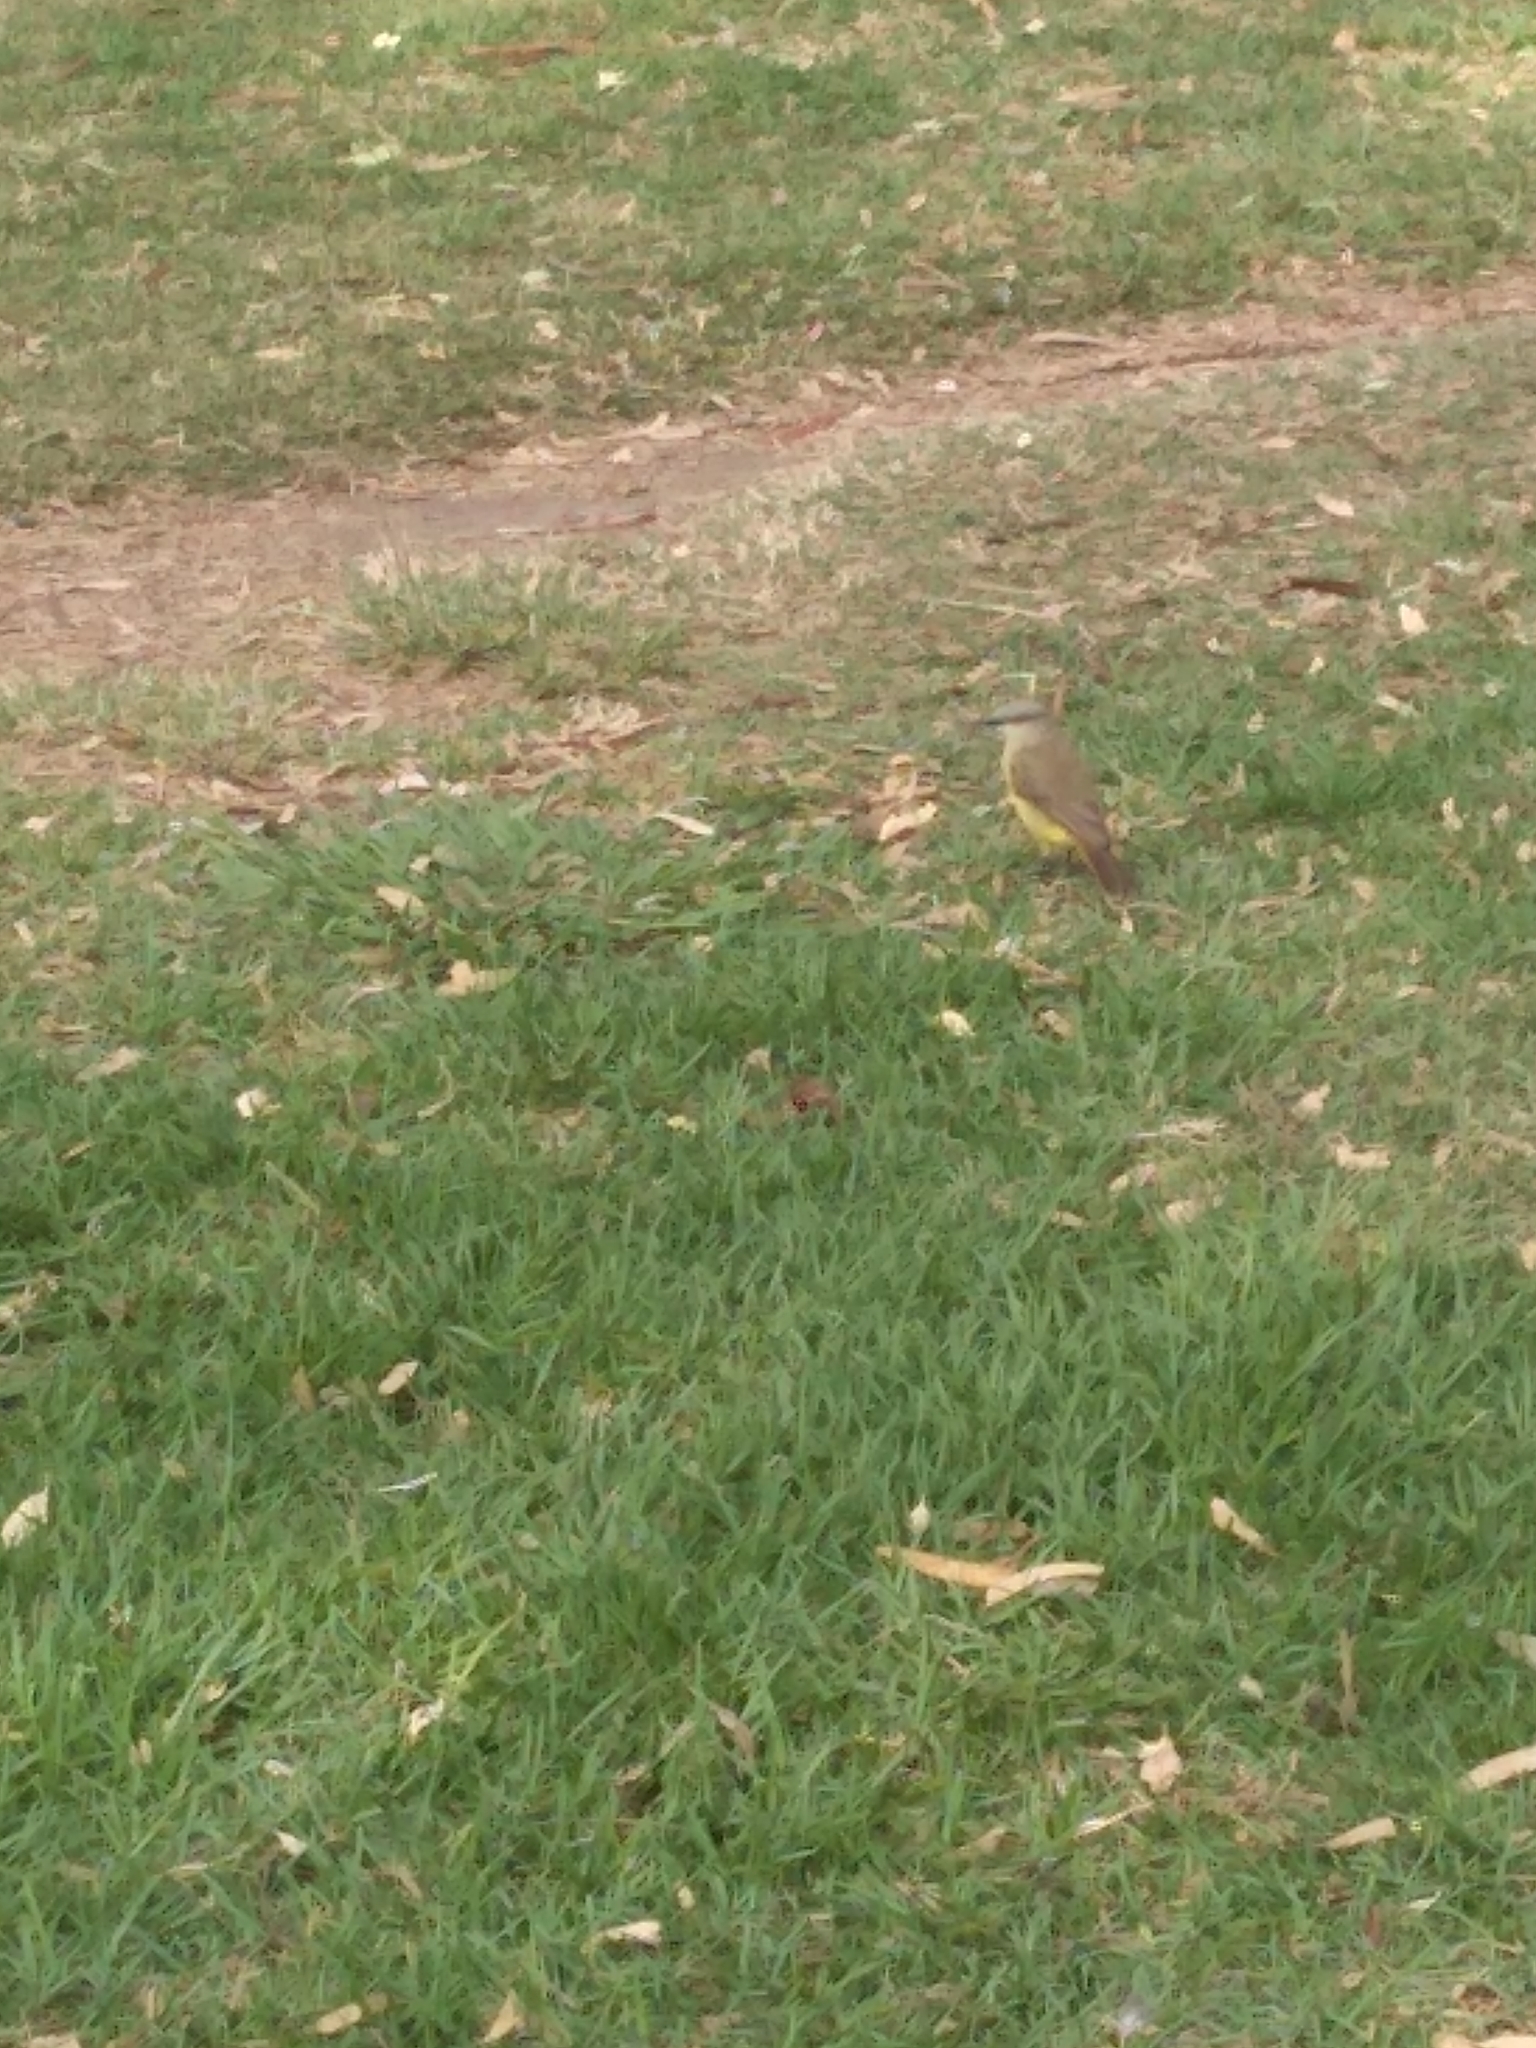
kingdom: Animalia
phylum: Chordata
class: Aves
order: Passeriformes
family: Tyrannidae
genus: Machetornis
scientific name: Machetornis rixosa
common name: Cattle tyrant
